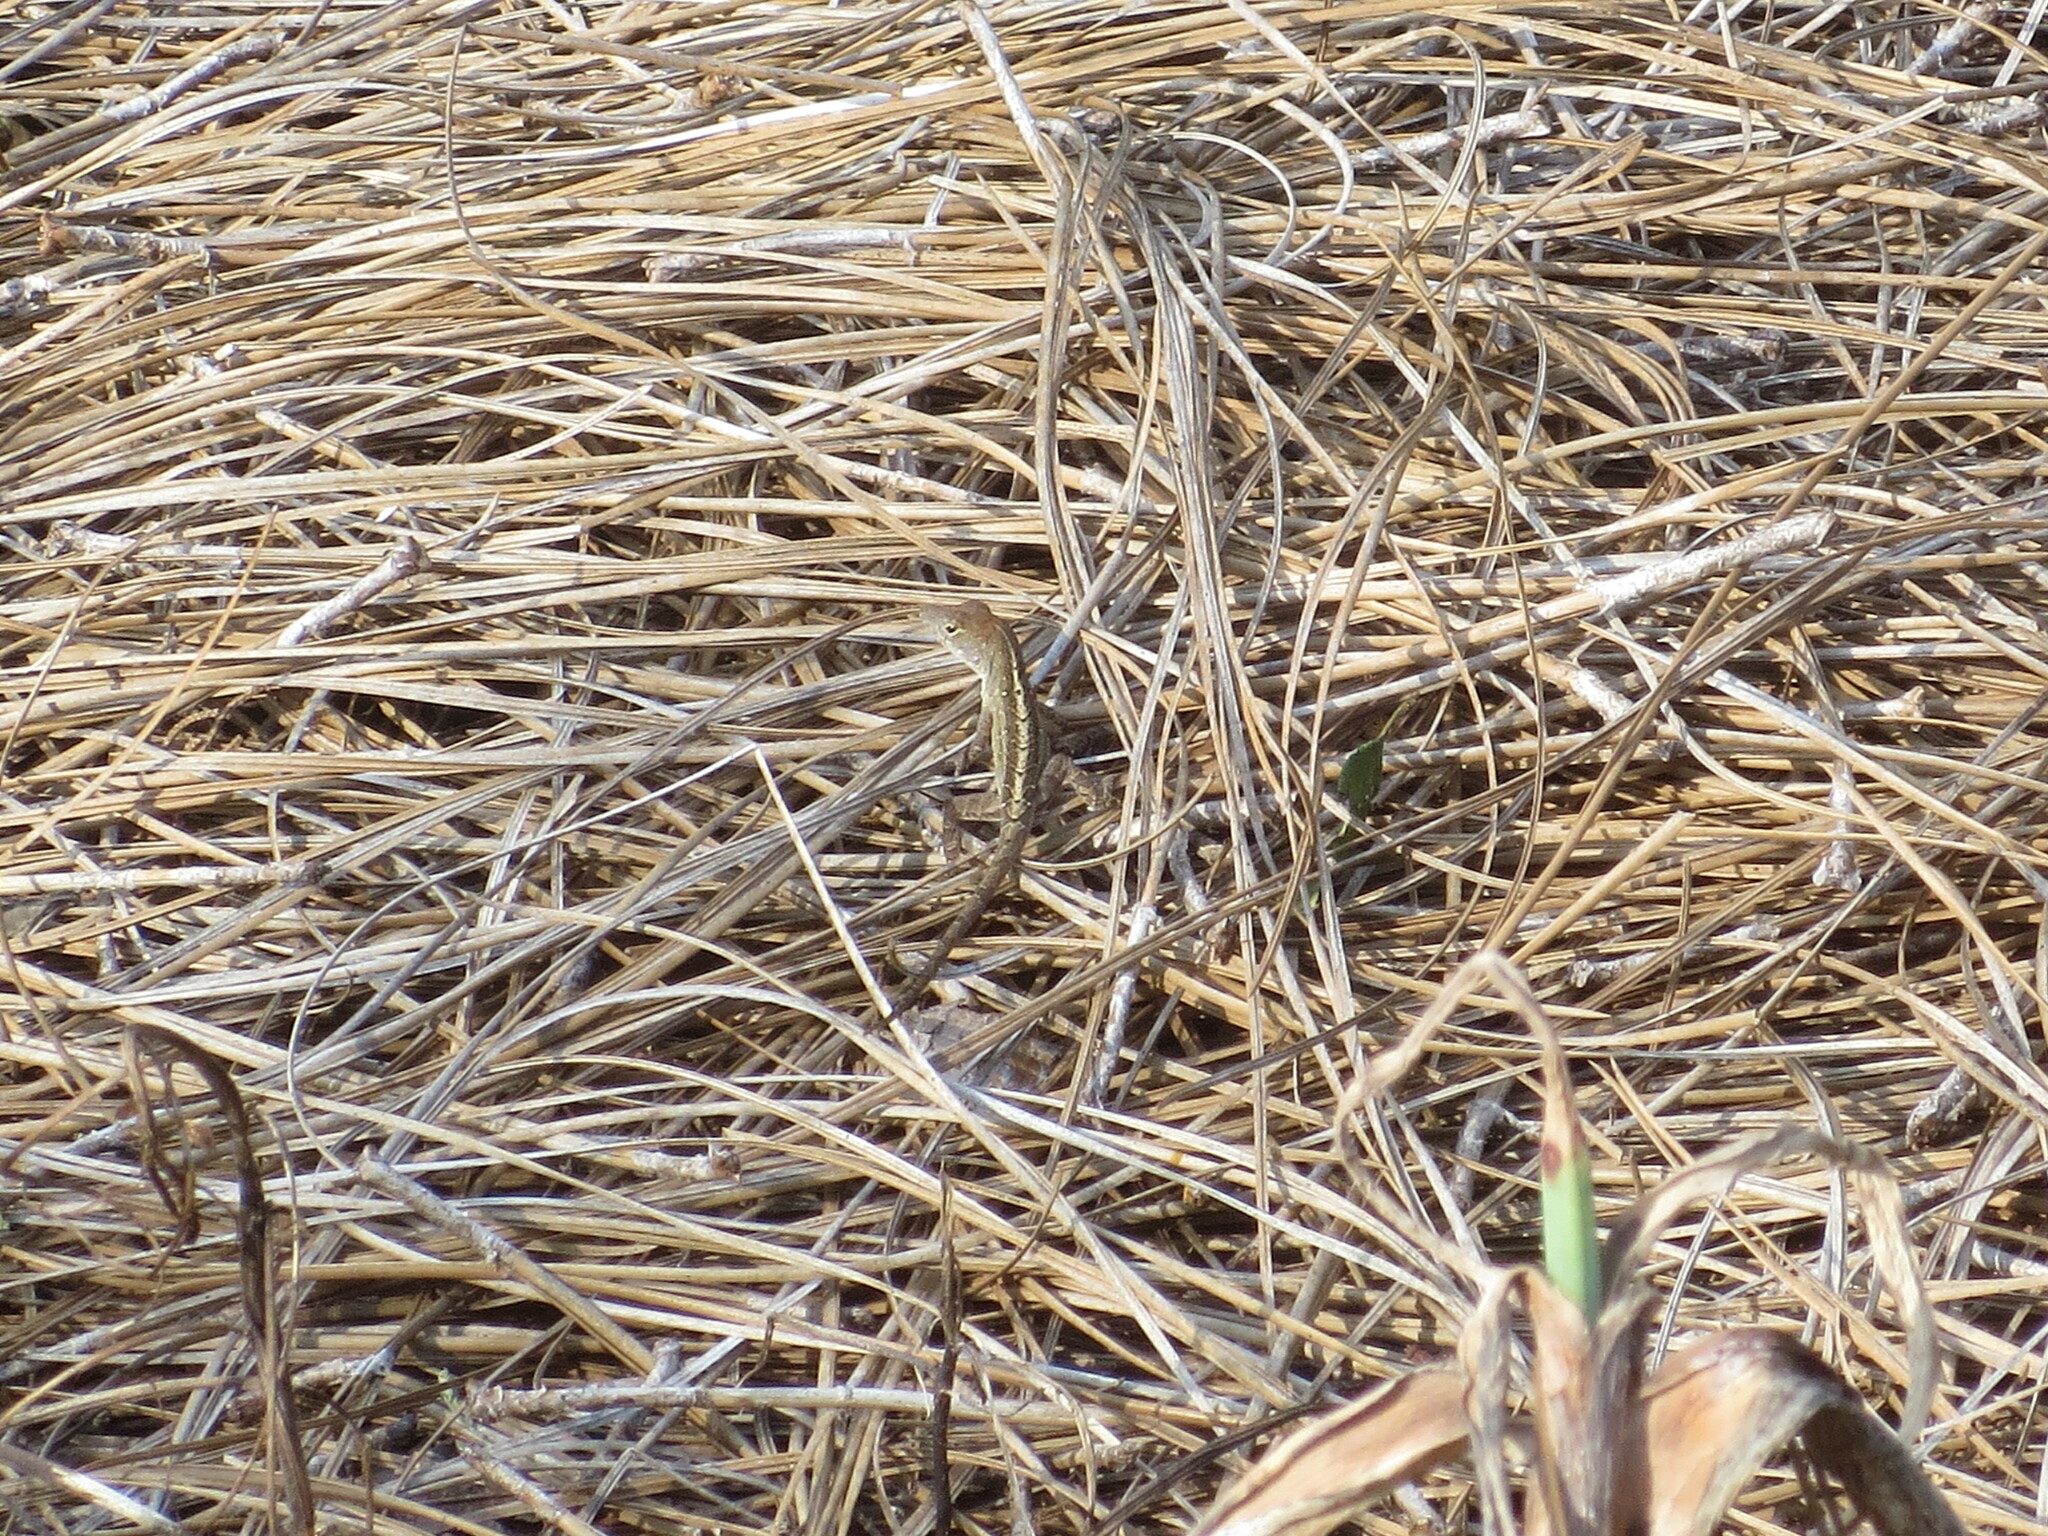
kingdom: Animalia
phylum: Chordata
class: Squamata
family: Dactyloidae
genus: Anolis
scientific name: Anolis sagrei
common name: Brown anole
